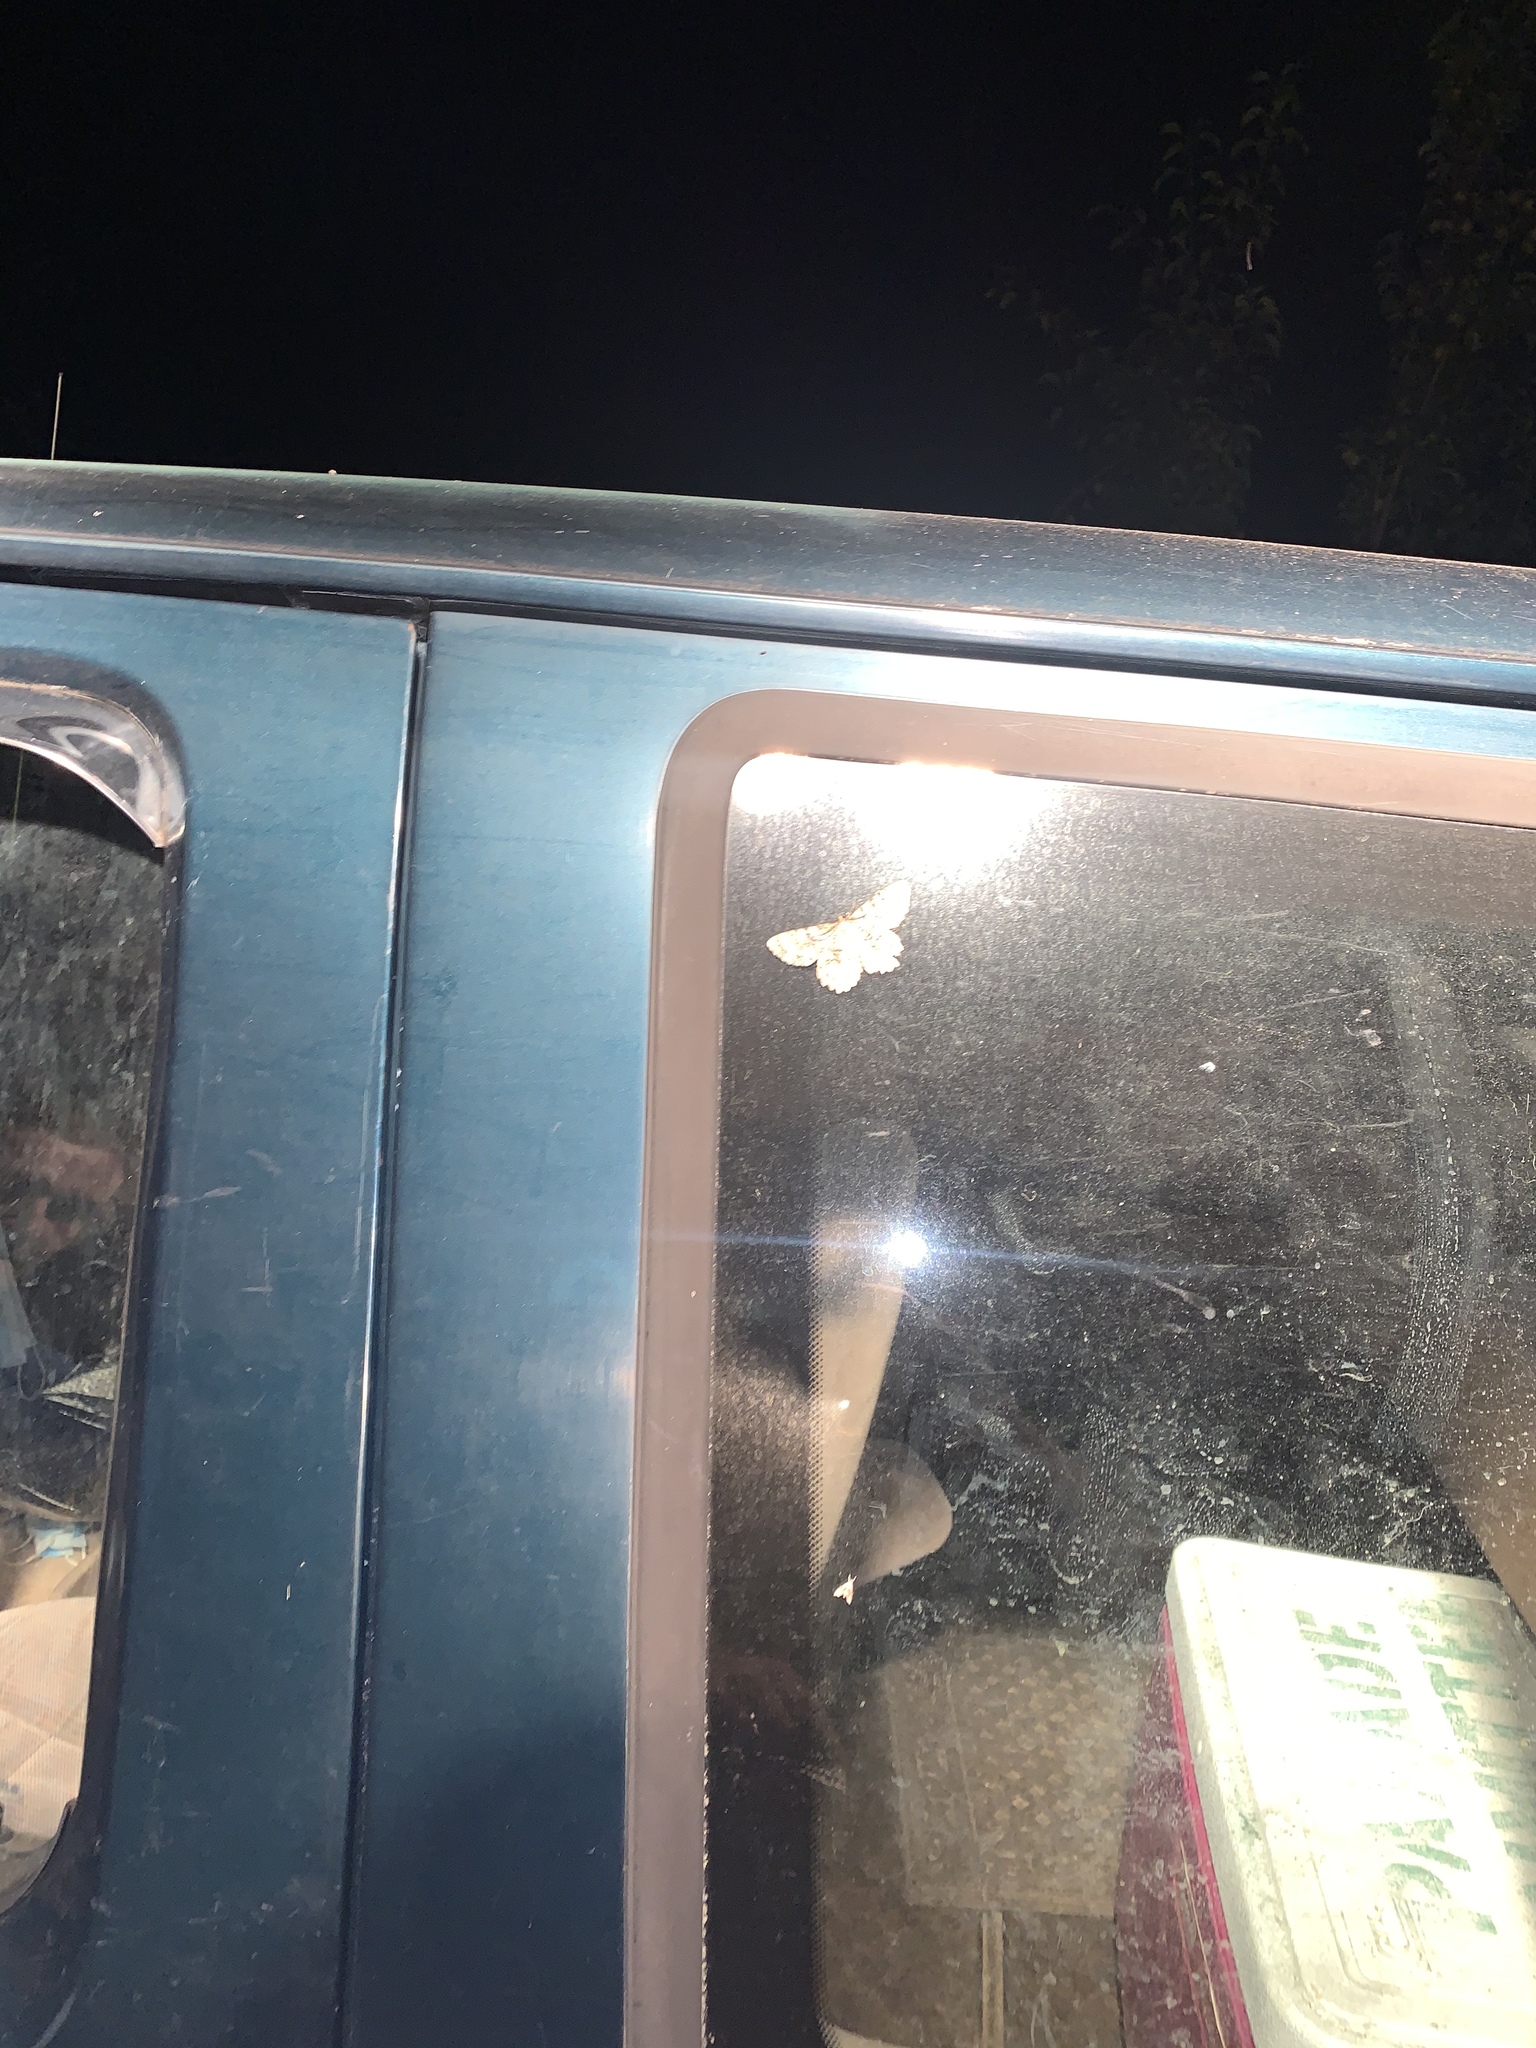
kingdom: Animalia
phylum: Arthropoda
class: Insecta
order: Lepidoptera
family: Geometridae
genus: Epimecis
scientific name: Epimecis hortaria
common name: Tulip-tree beauty
